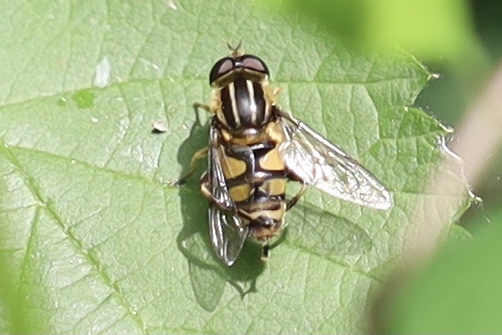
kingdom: Animalia
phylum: Arthropoda
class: Insecta
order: Diptera
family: Syrphidae
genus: Helophilus
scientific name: Helophilus fasciatus
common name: Narrow-headed marsh fly
